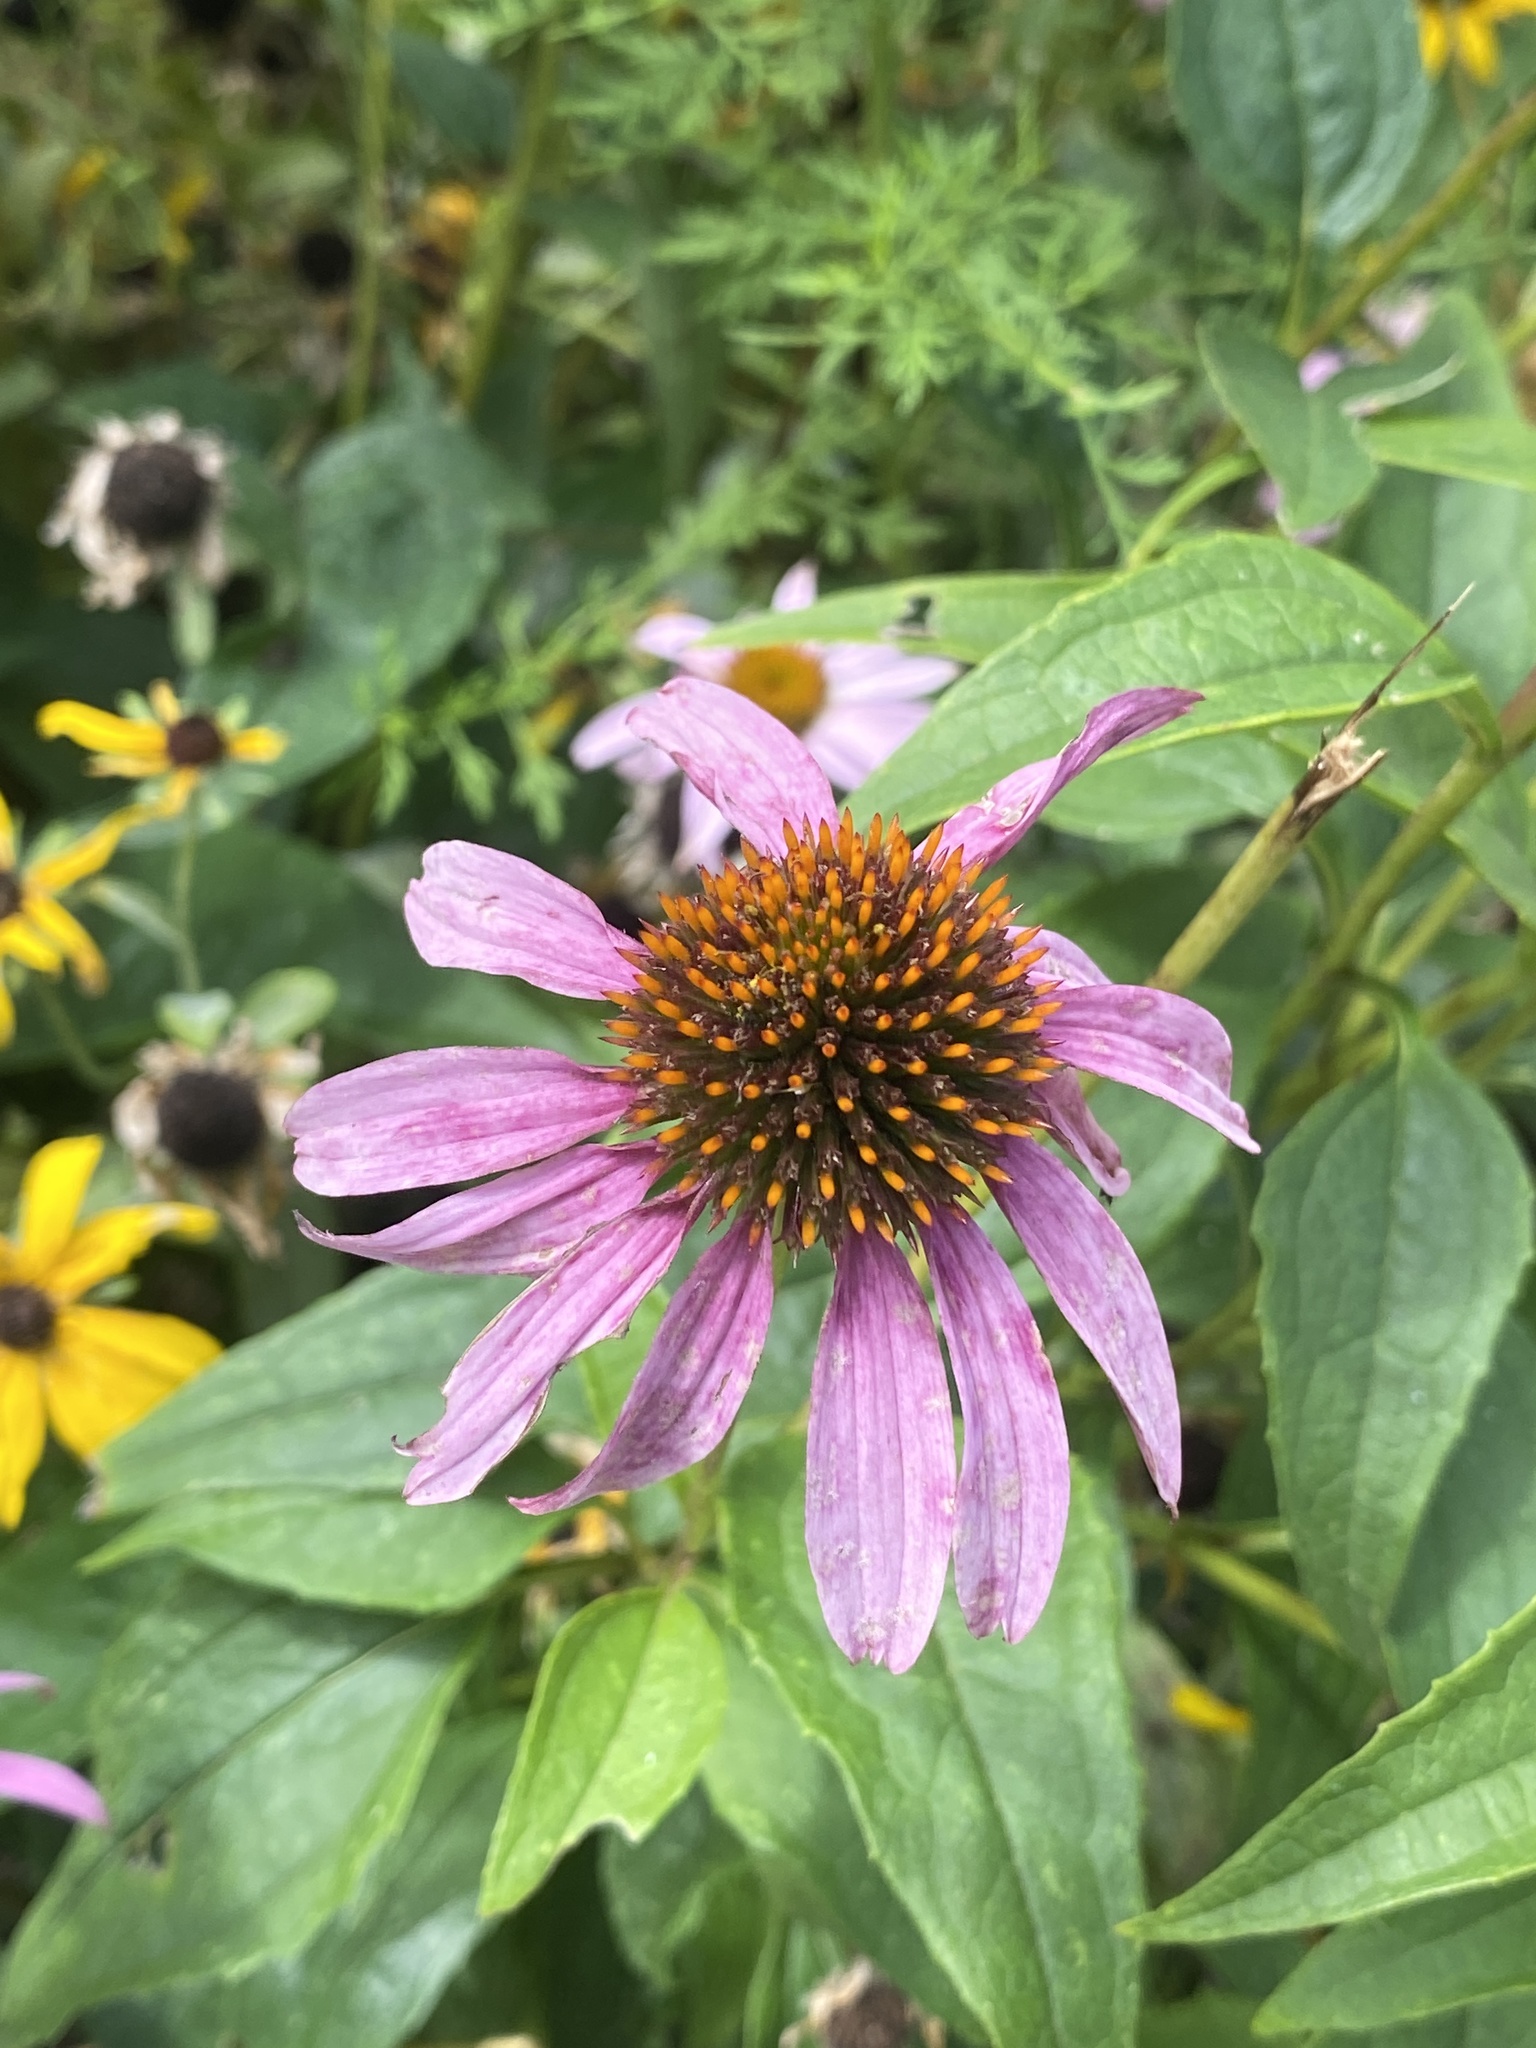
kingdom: Plantae
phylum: Tracheophyta
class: Magnoliopsida
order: Asterales
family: Asteraceae
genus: Echinacea
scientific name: Echinacea purpurea
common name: Broad-leaved purple coneflower
